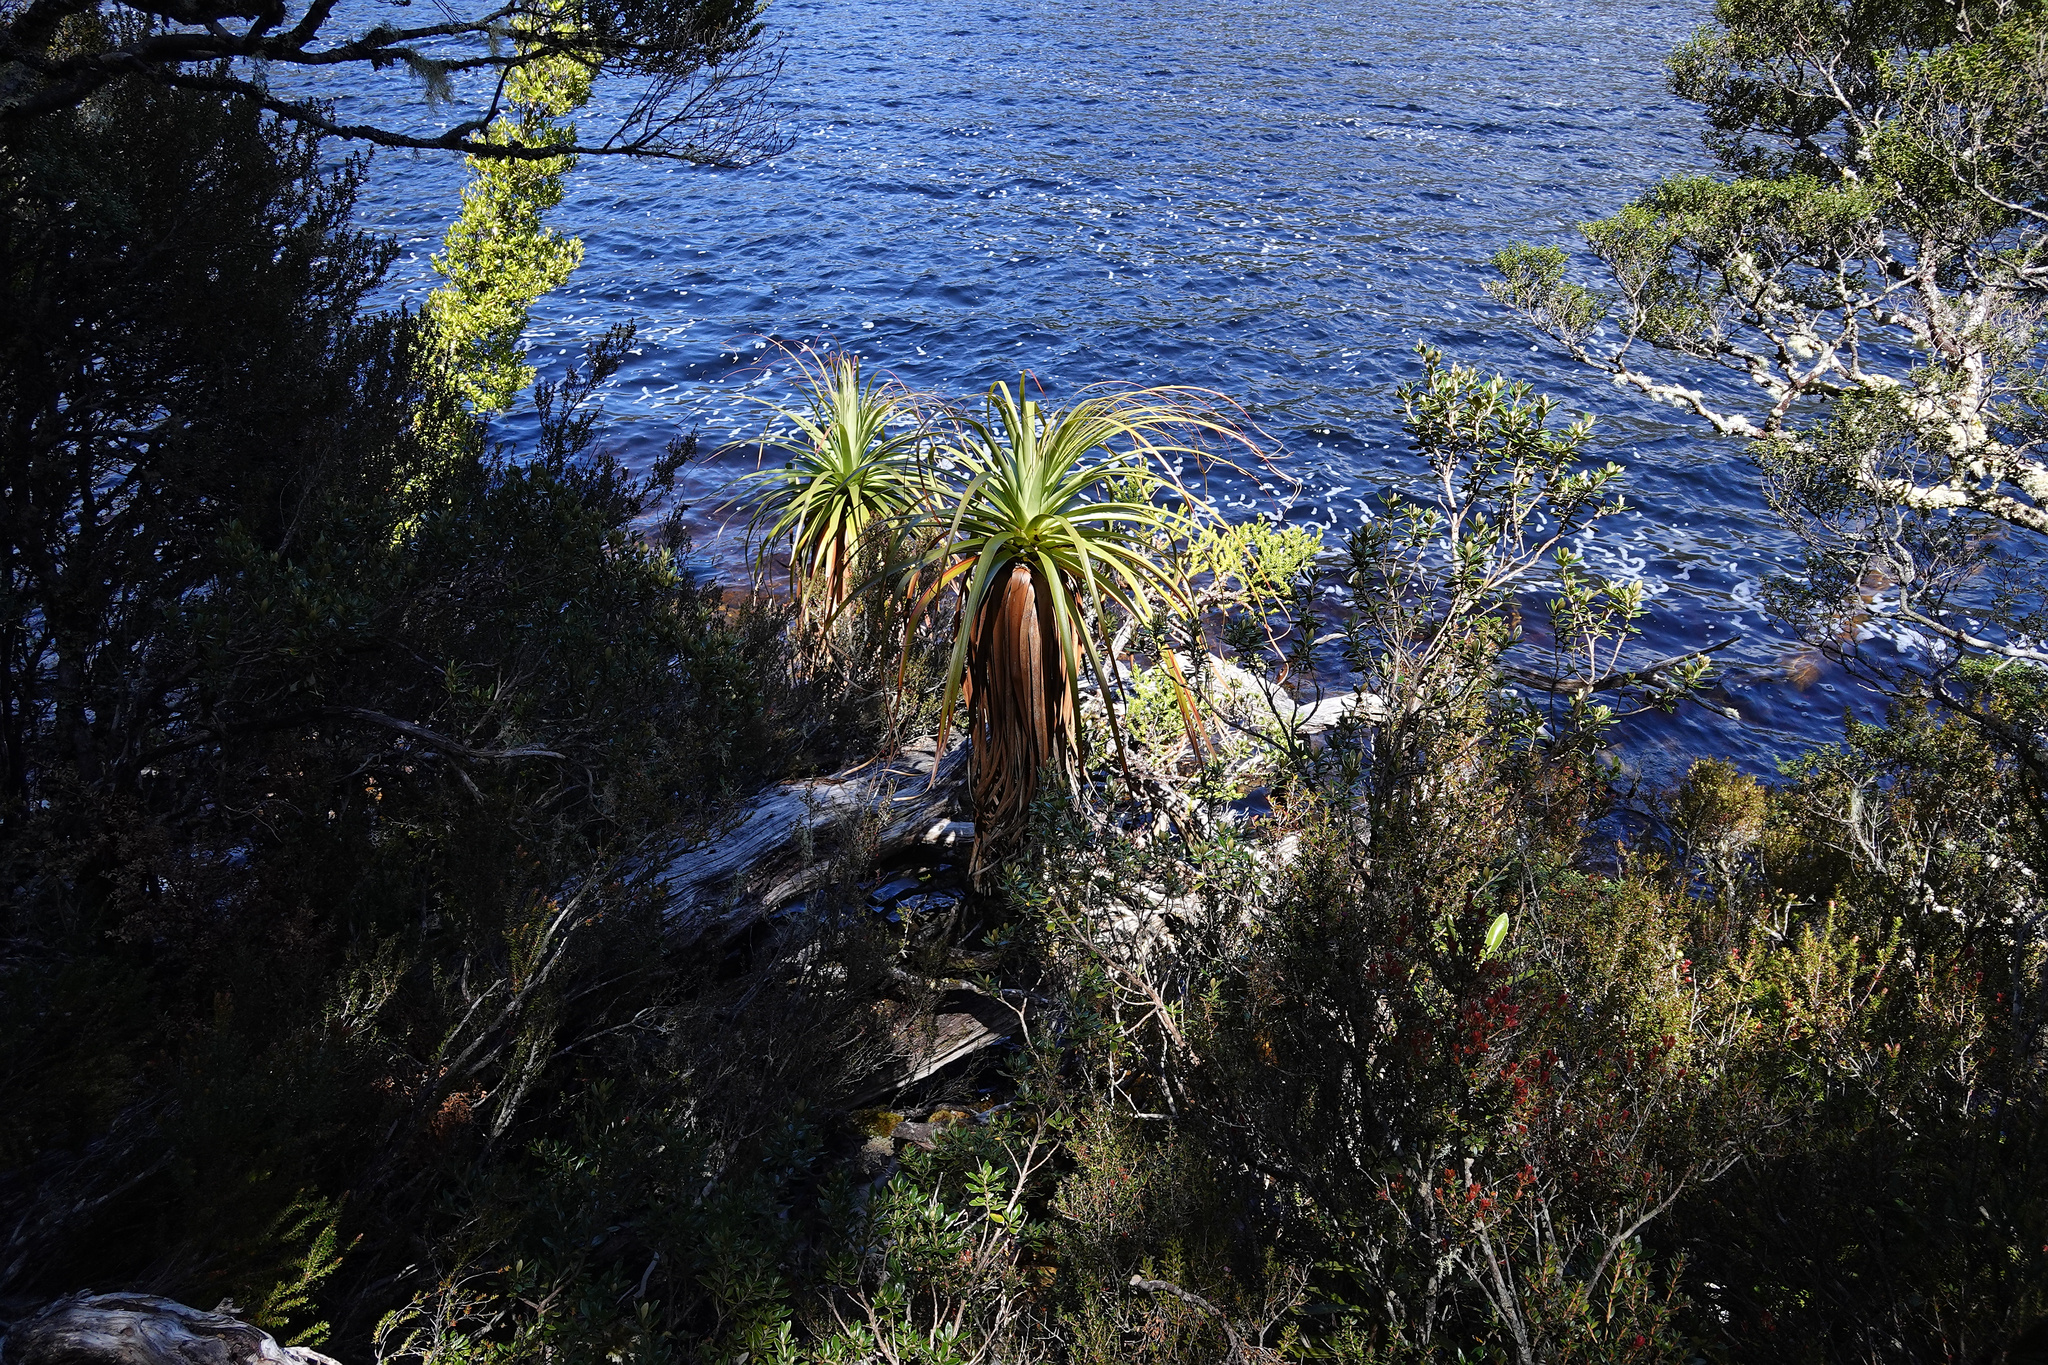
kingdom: Plantae
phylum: Tracheophyta
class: Magnoliopsida
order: Ericales
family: Ericaceae
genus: Dracophyllum
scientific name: Dracophyllum pandanifolium
